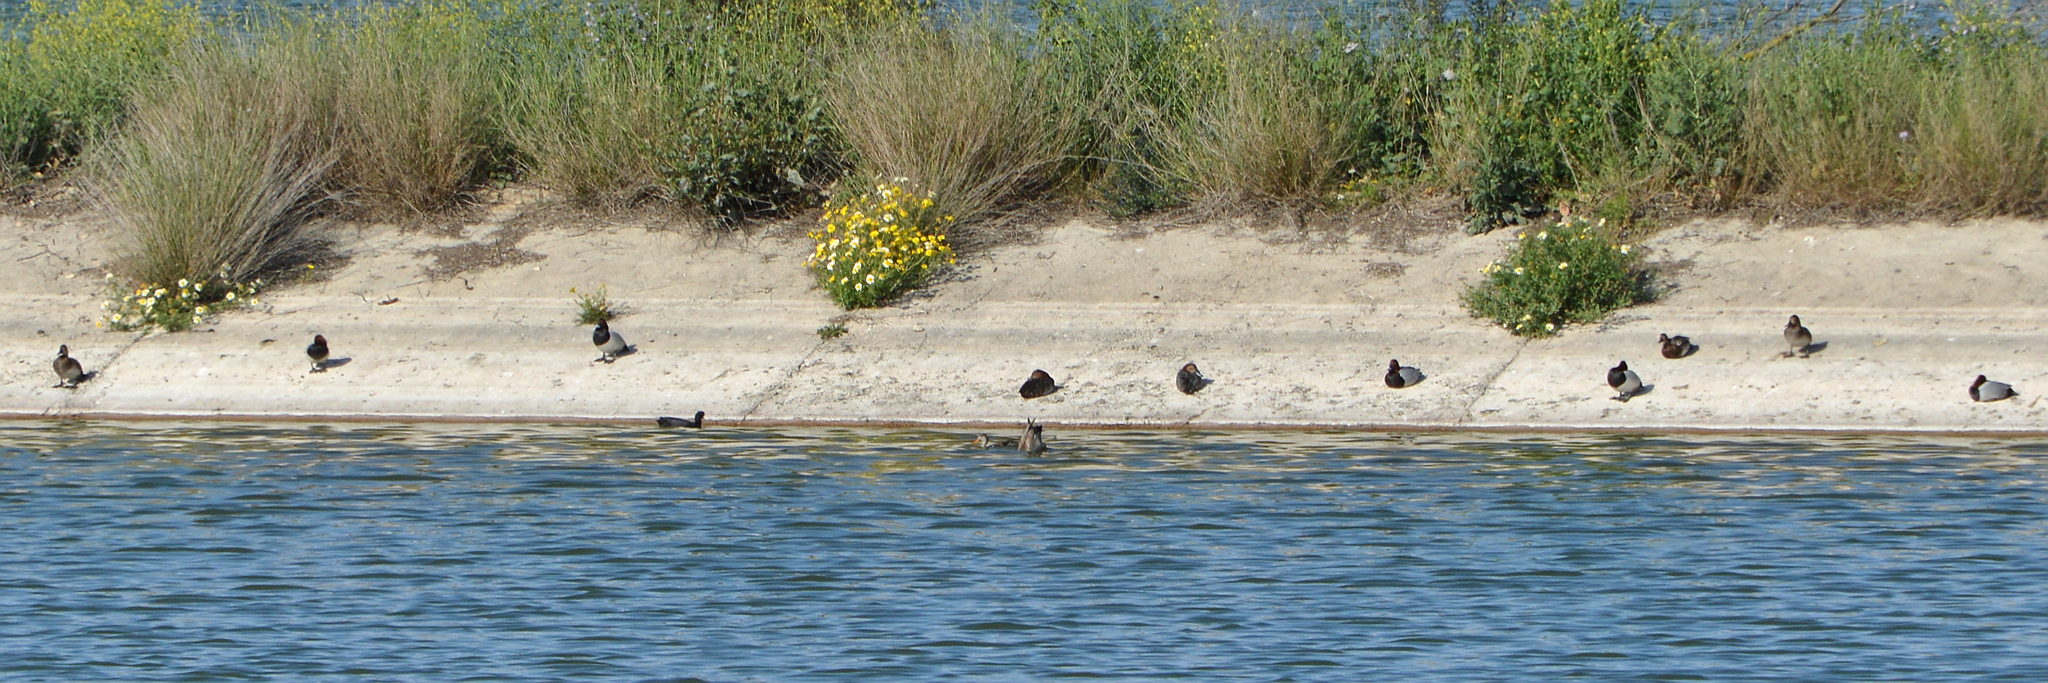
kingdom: Animalia
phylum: Chordata
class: Aves
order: Anseriformes
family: Anatidae
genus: Aythya
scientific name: Aythya ferina
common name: Common pochard
